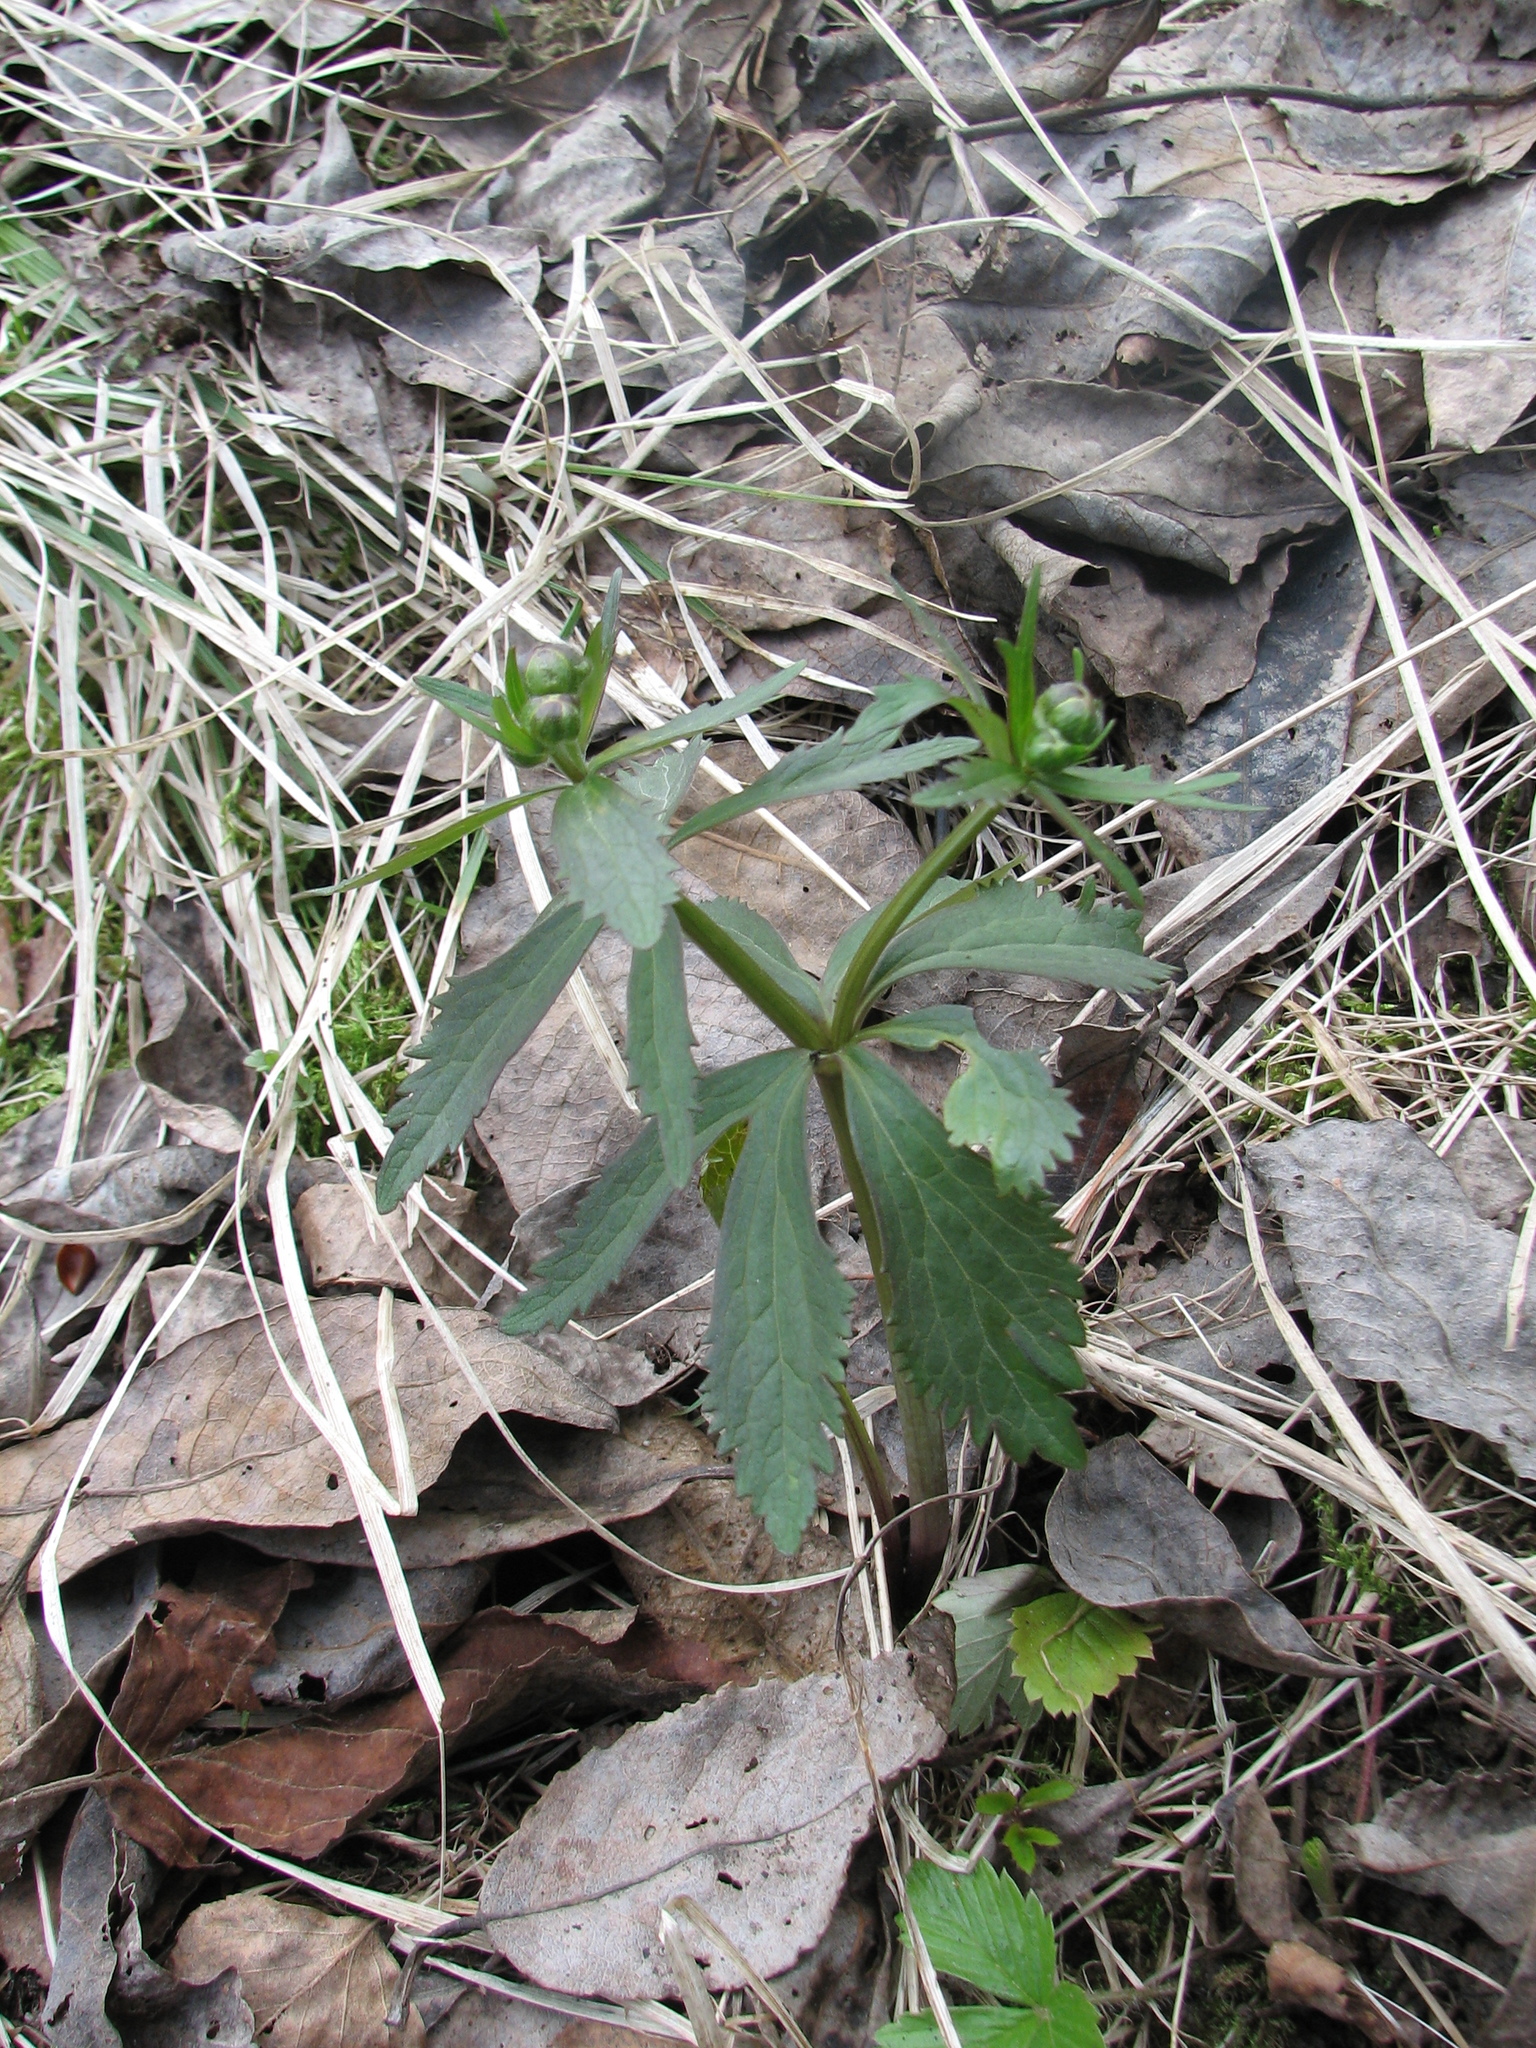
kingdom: Plantae
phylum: Tracheophyta
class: Magnoliopsida
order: Ranunculales
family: Ranunculaceae
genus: Ranunculus
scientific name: Ranunculus cassubicus
